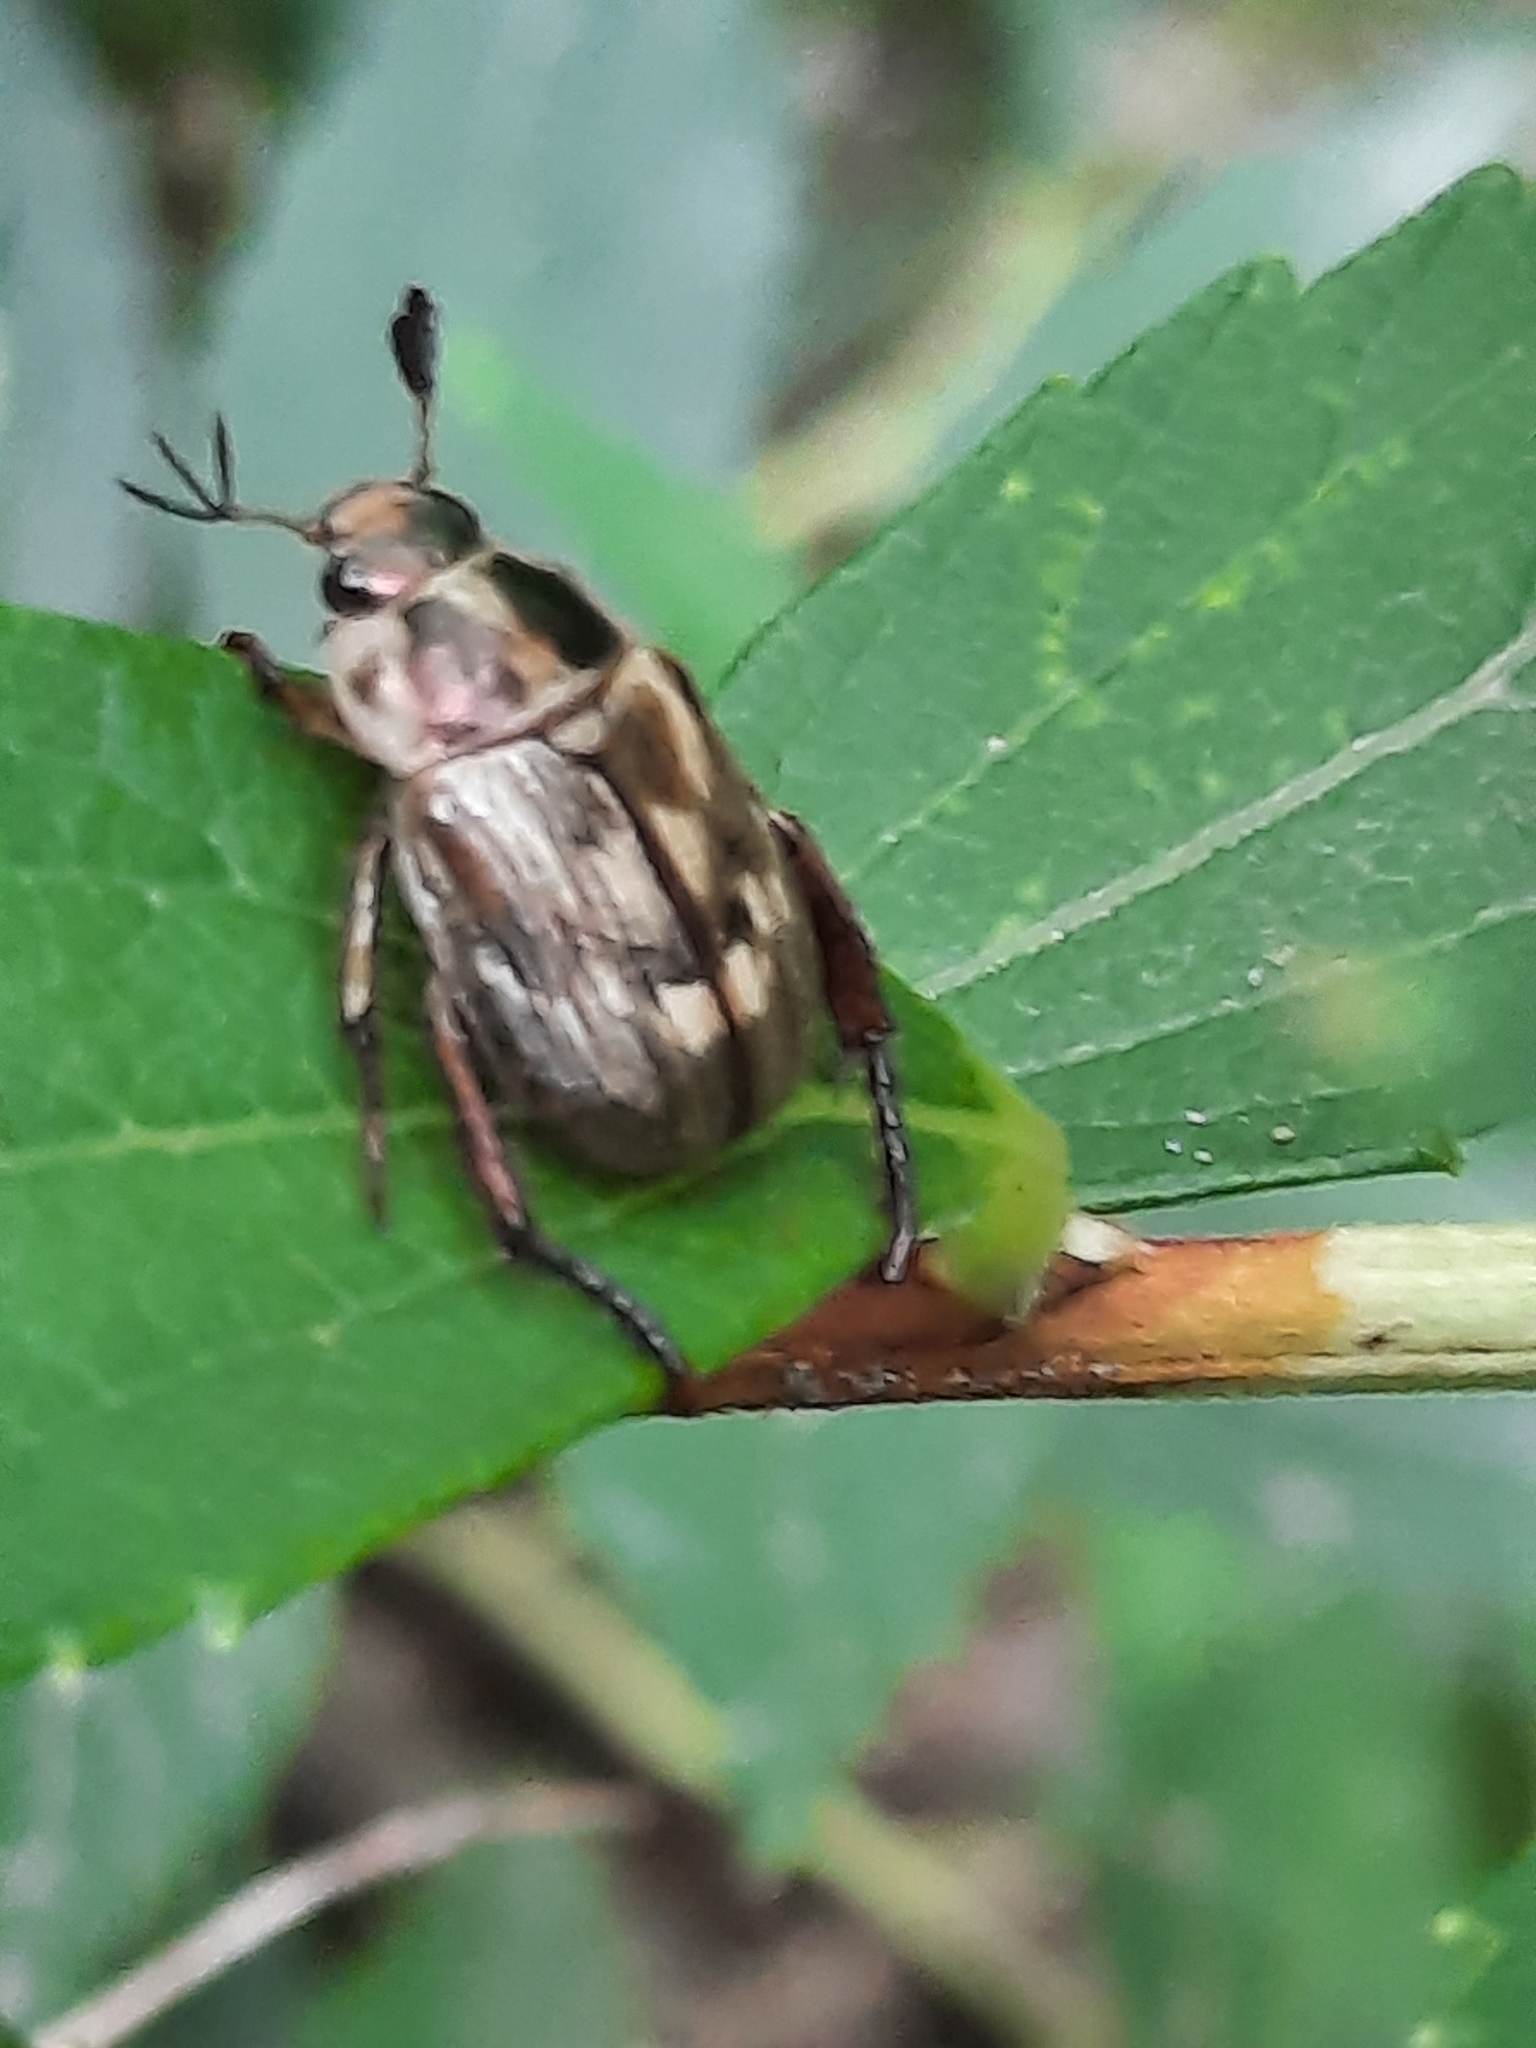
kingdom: Animalia
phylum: Arthropoda
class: Insecta
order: Coleoptera
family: Scarabaeidae
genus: Exomala
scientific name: Exomala orientalis
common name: Oriental beetle
